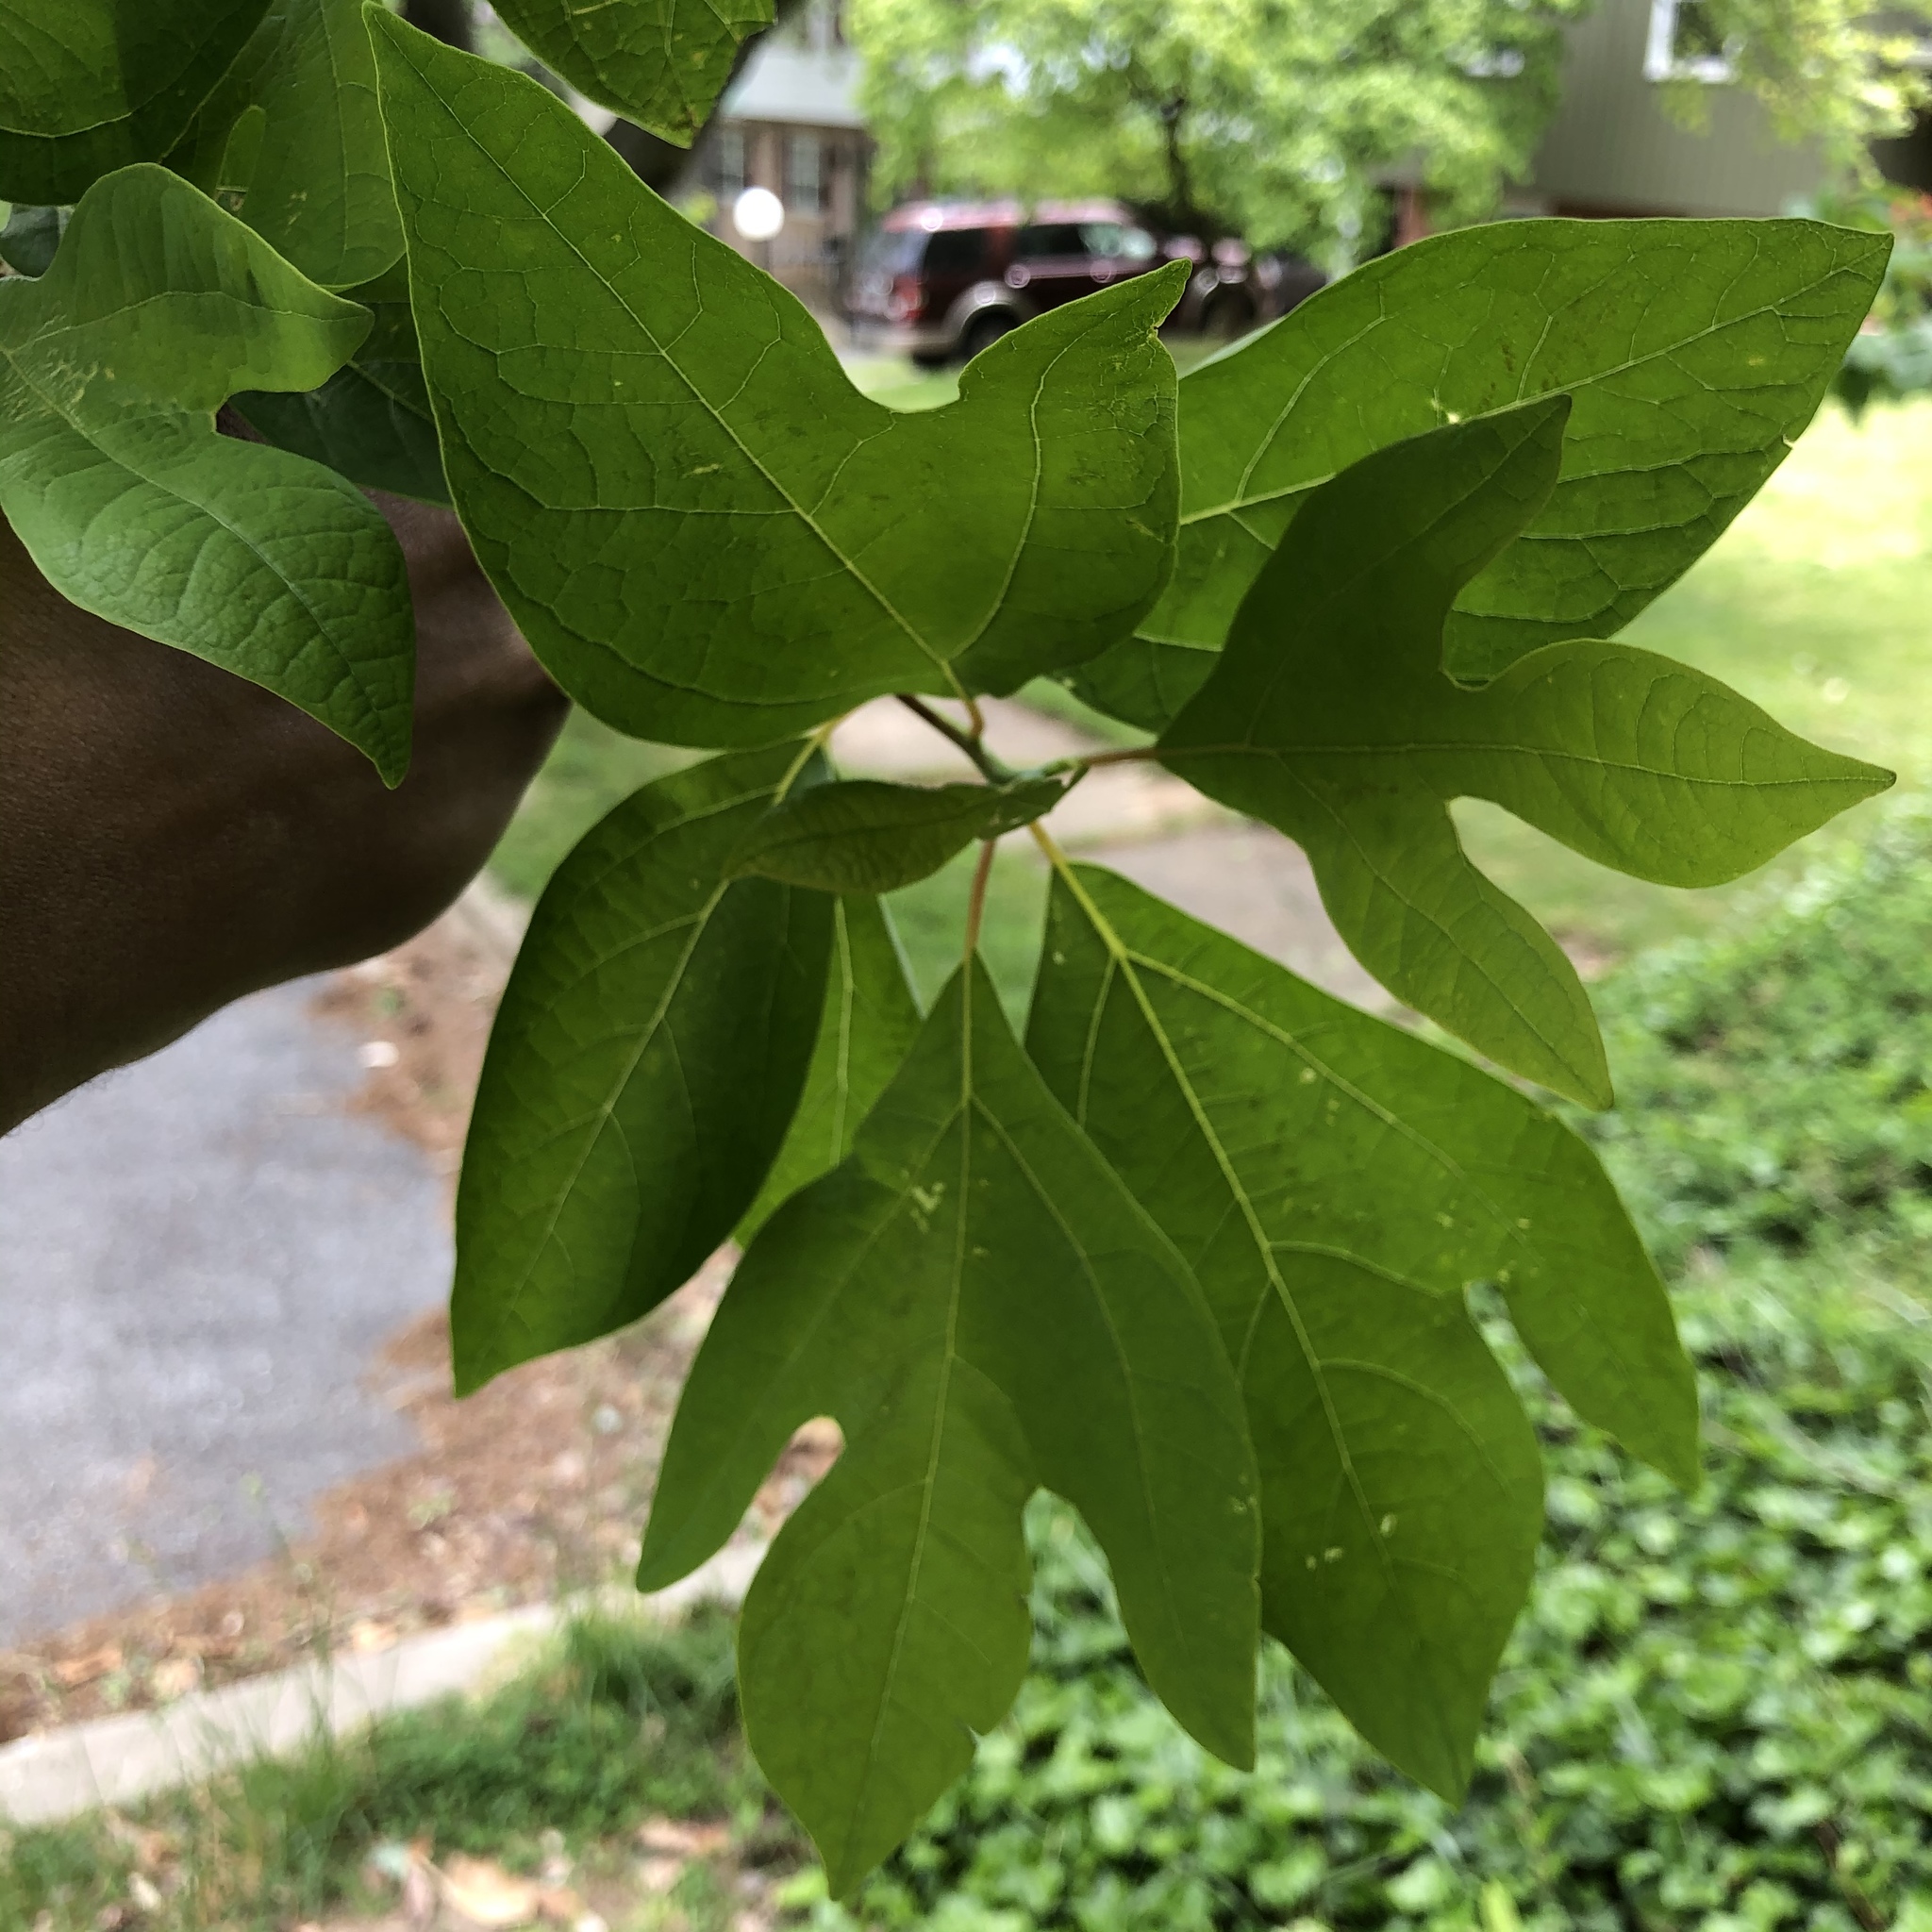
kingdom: Plantae
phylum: Tracheophyta
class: Magnoliopsida
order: Laurales
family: Lauraceae
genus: Sassafras
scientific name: Sassafras albidum
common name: Sassafras
